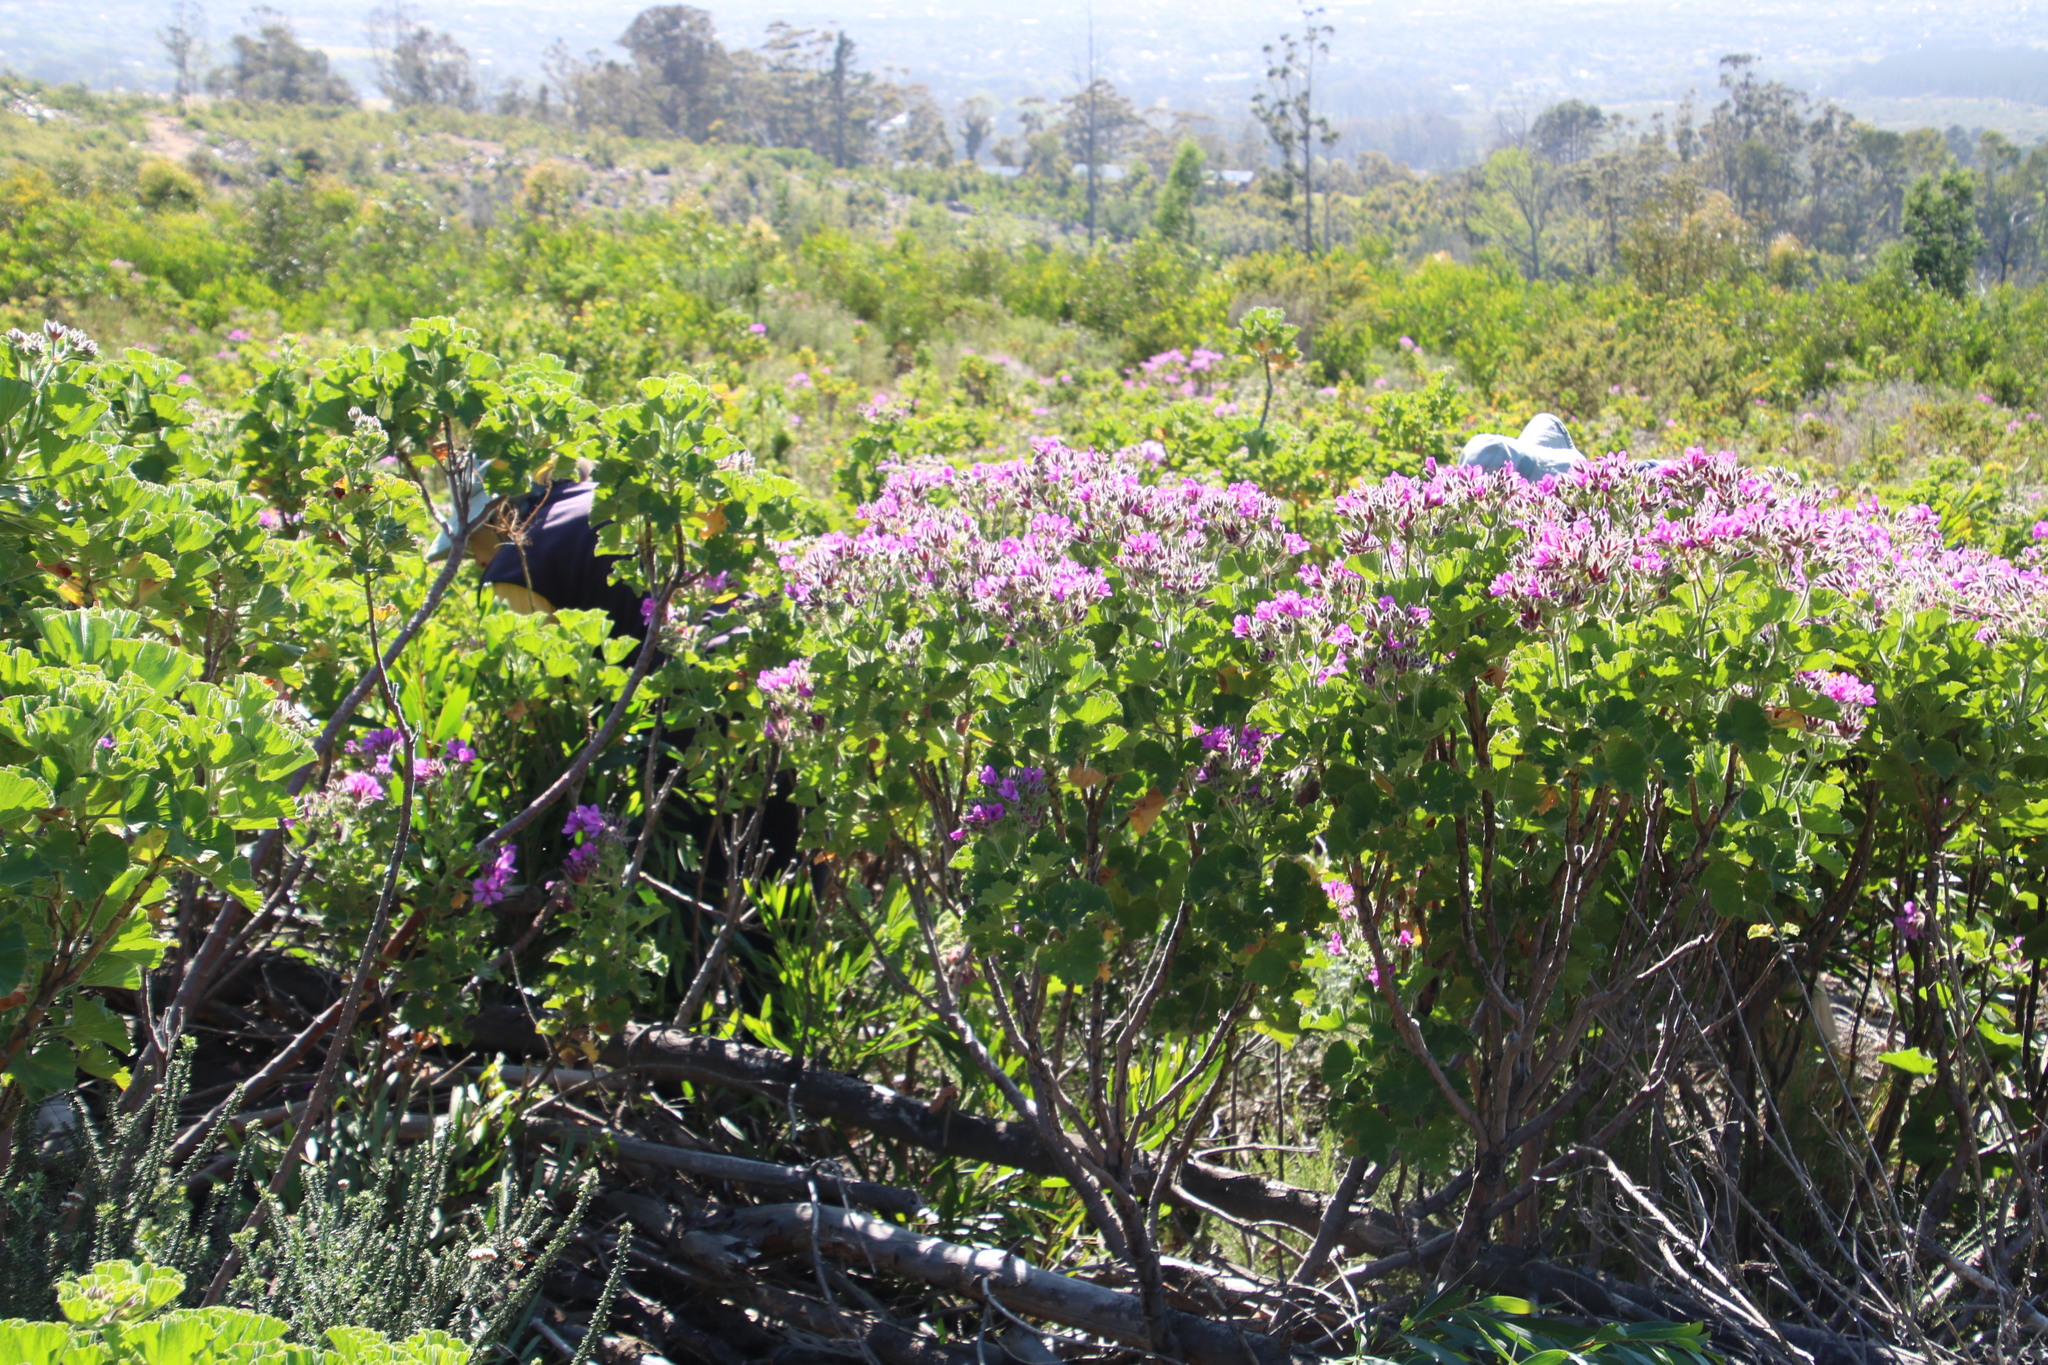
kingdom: Plantae
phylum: Tracheophyta
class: Magnoliopsida
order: Geraniales
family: Geraniaceae
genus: Pelargonium
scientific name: Pelargonium cucullatum
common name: Tree pelargonium
